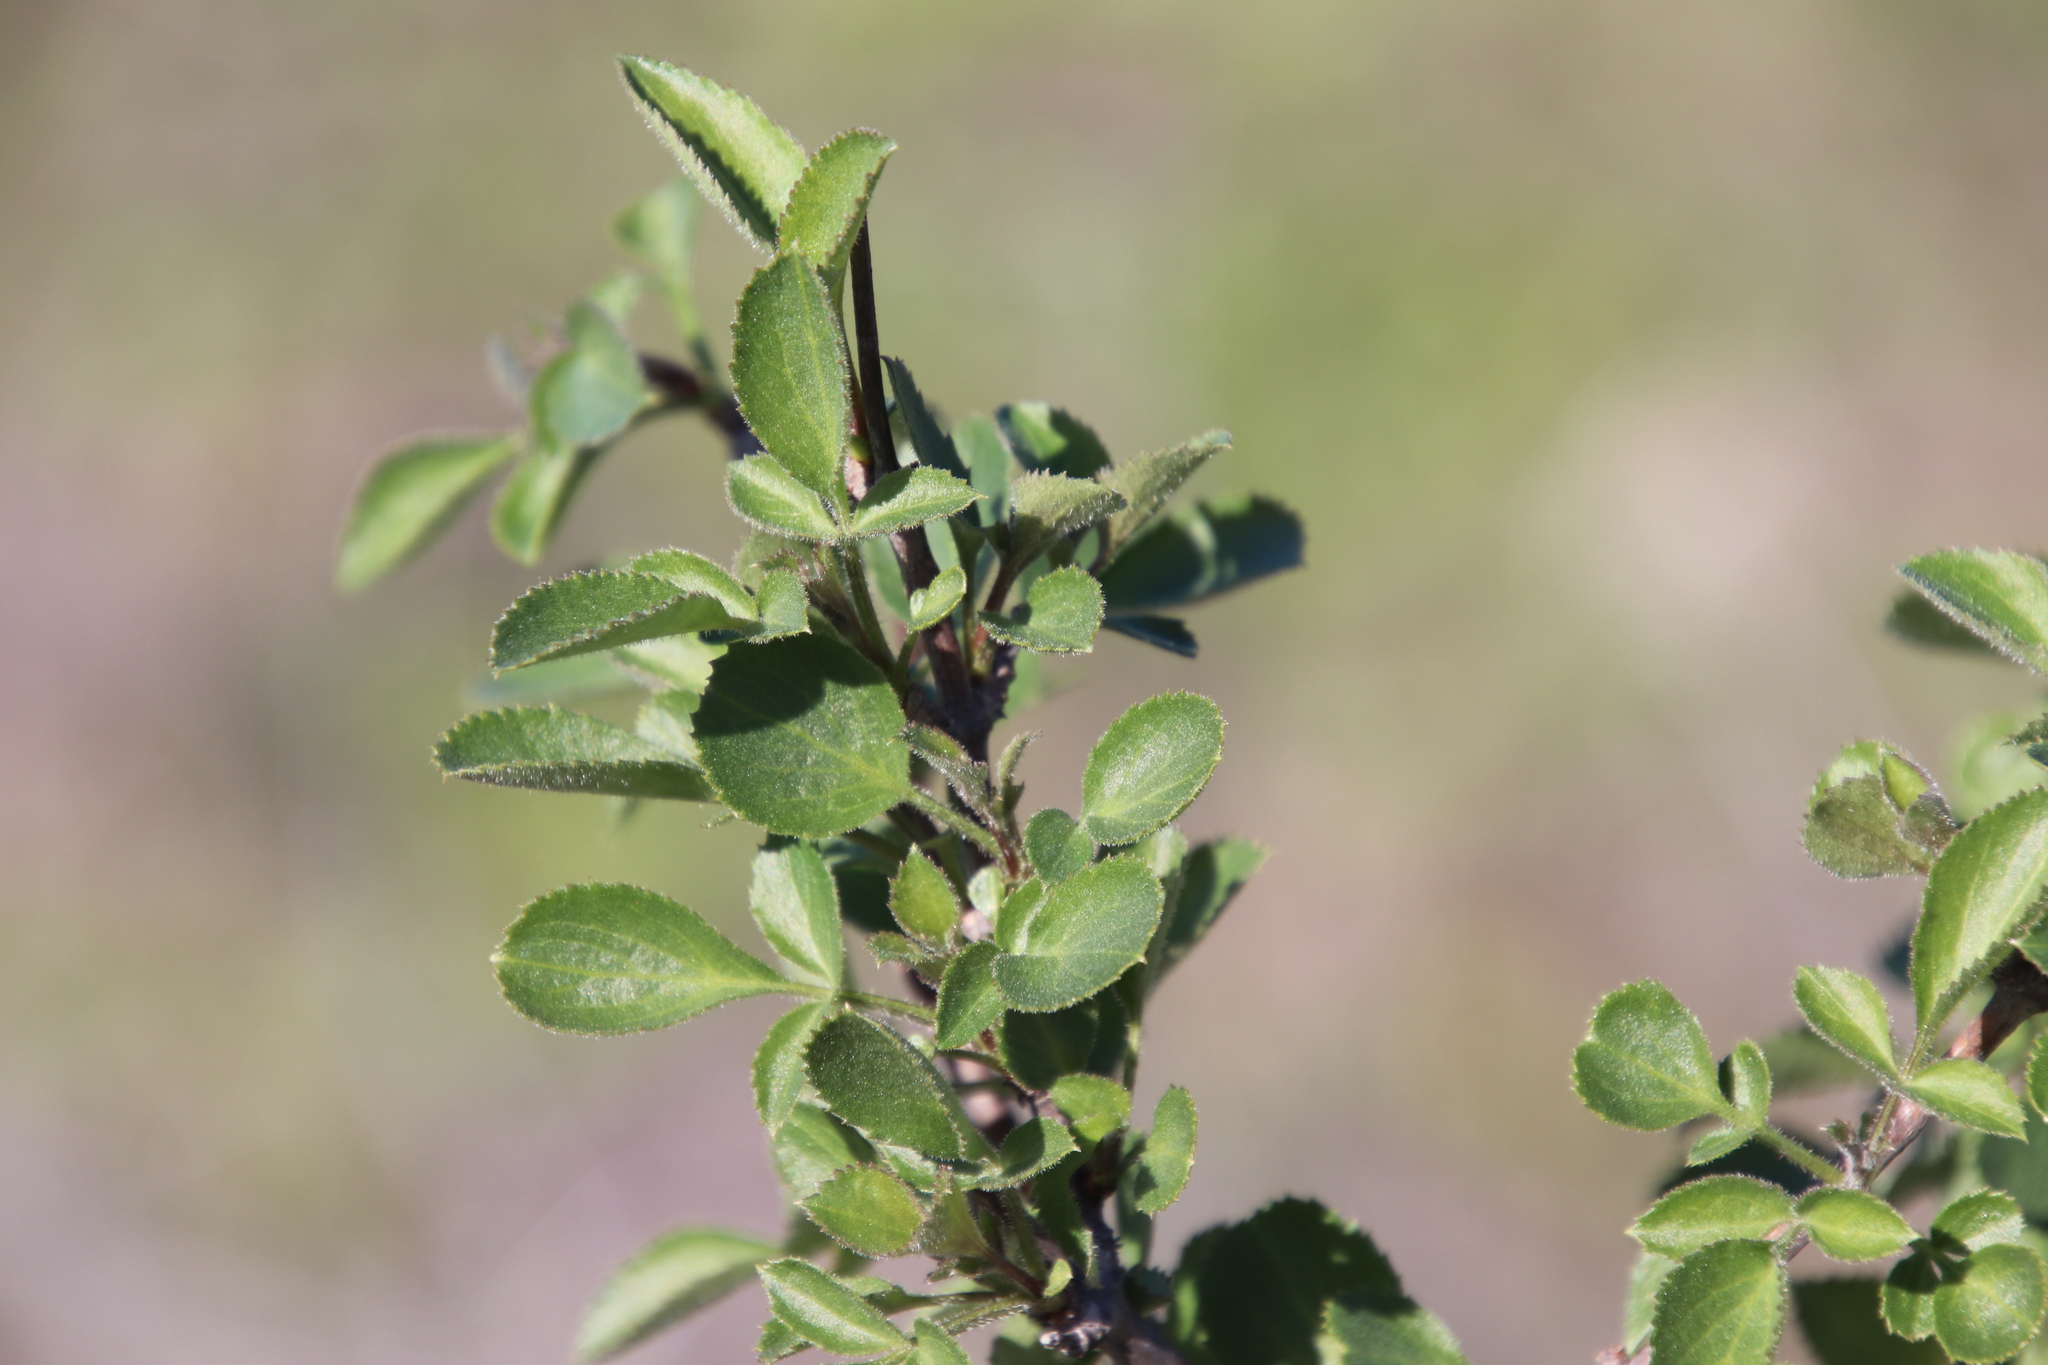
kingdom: Plantae
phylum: Tracheophyta
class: Magnoliopsida
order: Dipsacales
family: Viburnaceae
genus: Sambucus
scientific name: Sambucus cerulea
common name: Blue elder
